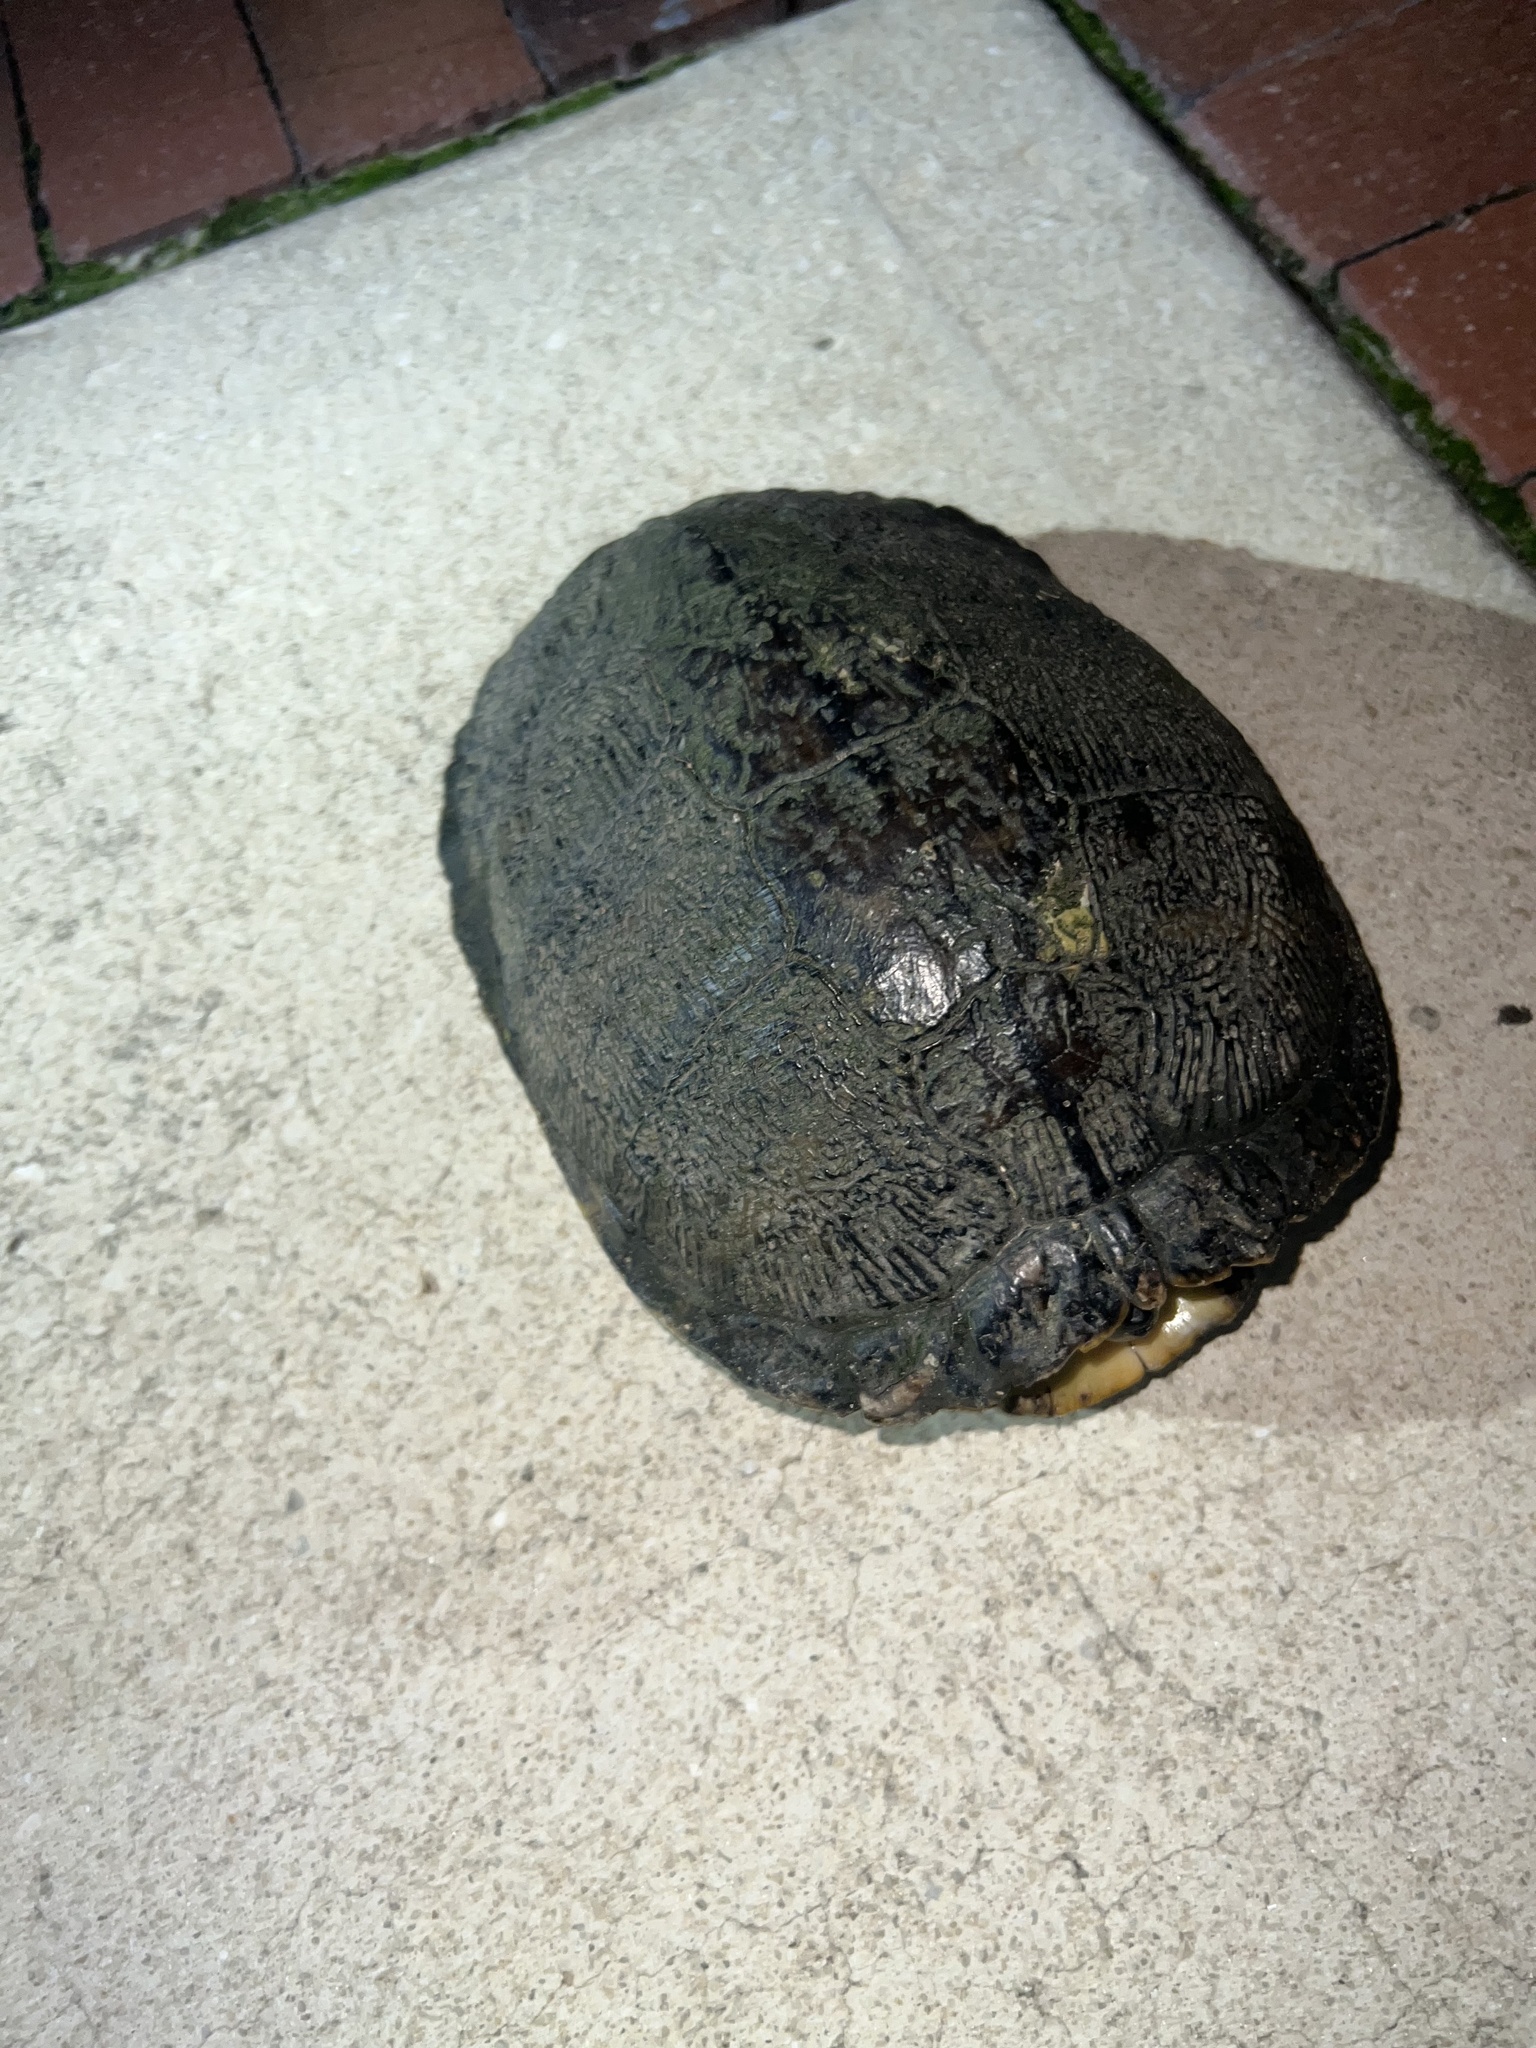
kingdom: Animalia
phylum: Chordata
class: Testudines
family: Emydidae
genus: Pseudemys
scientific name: Pseudemys peninsularis
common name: Peninsula cooter
